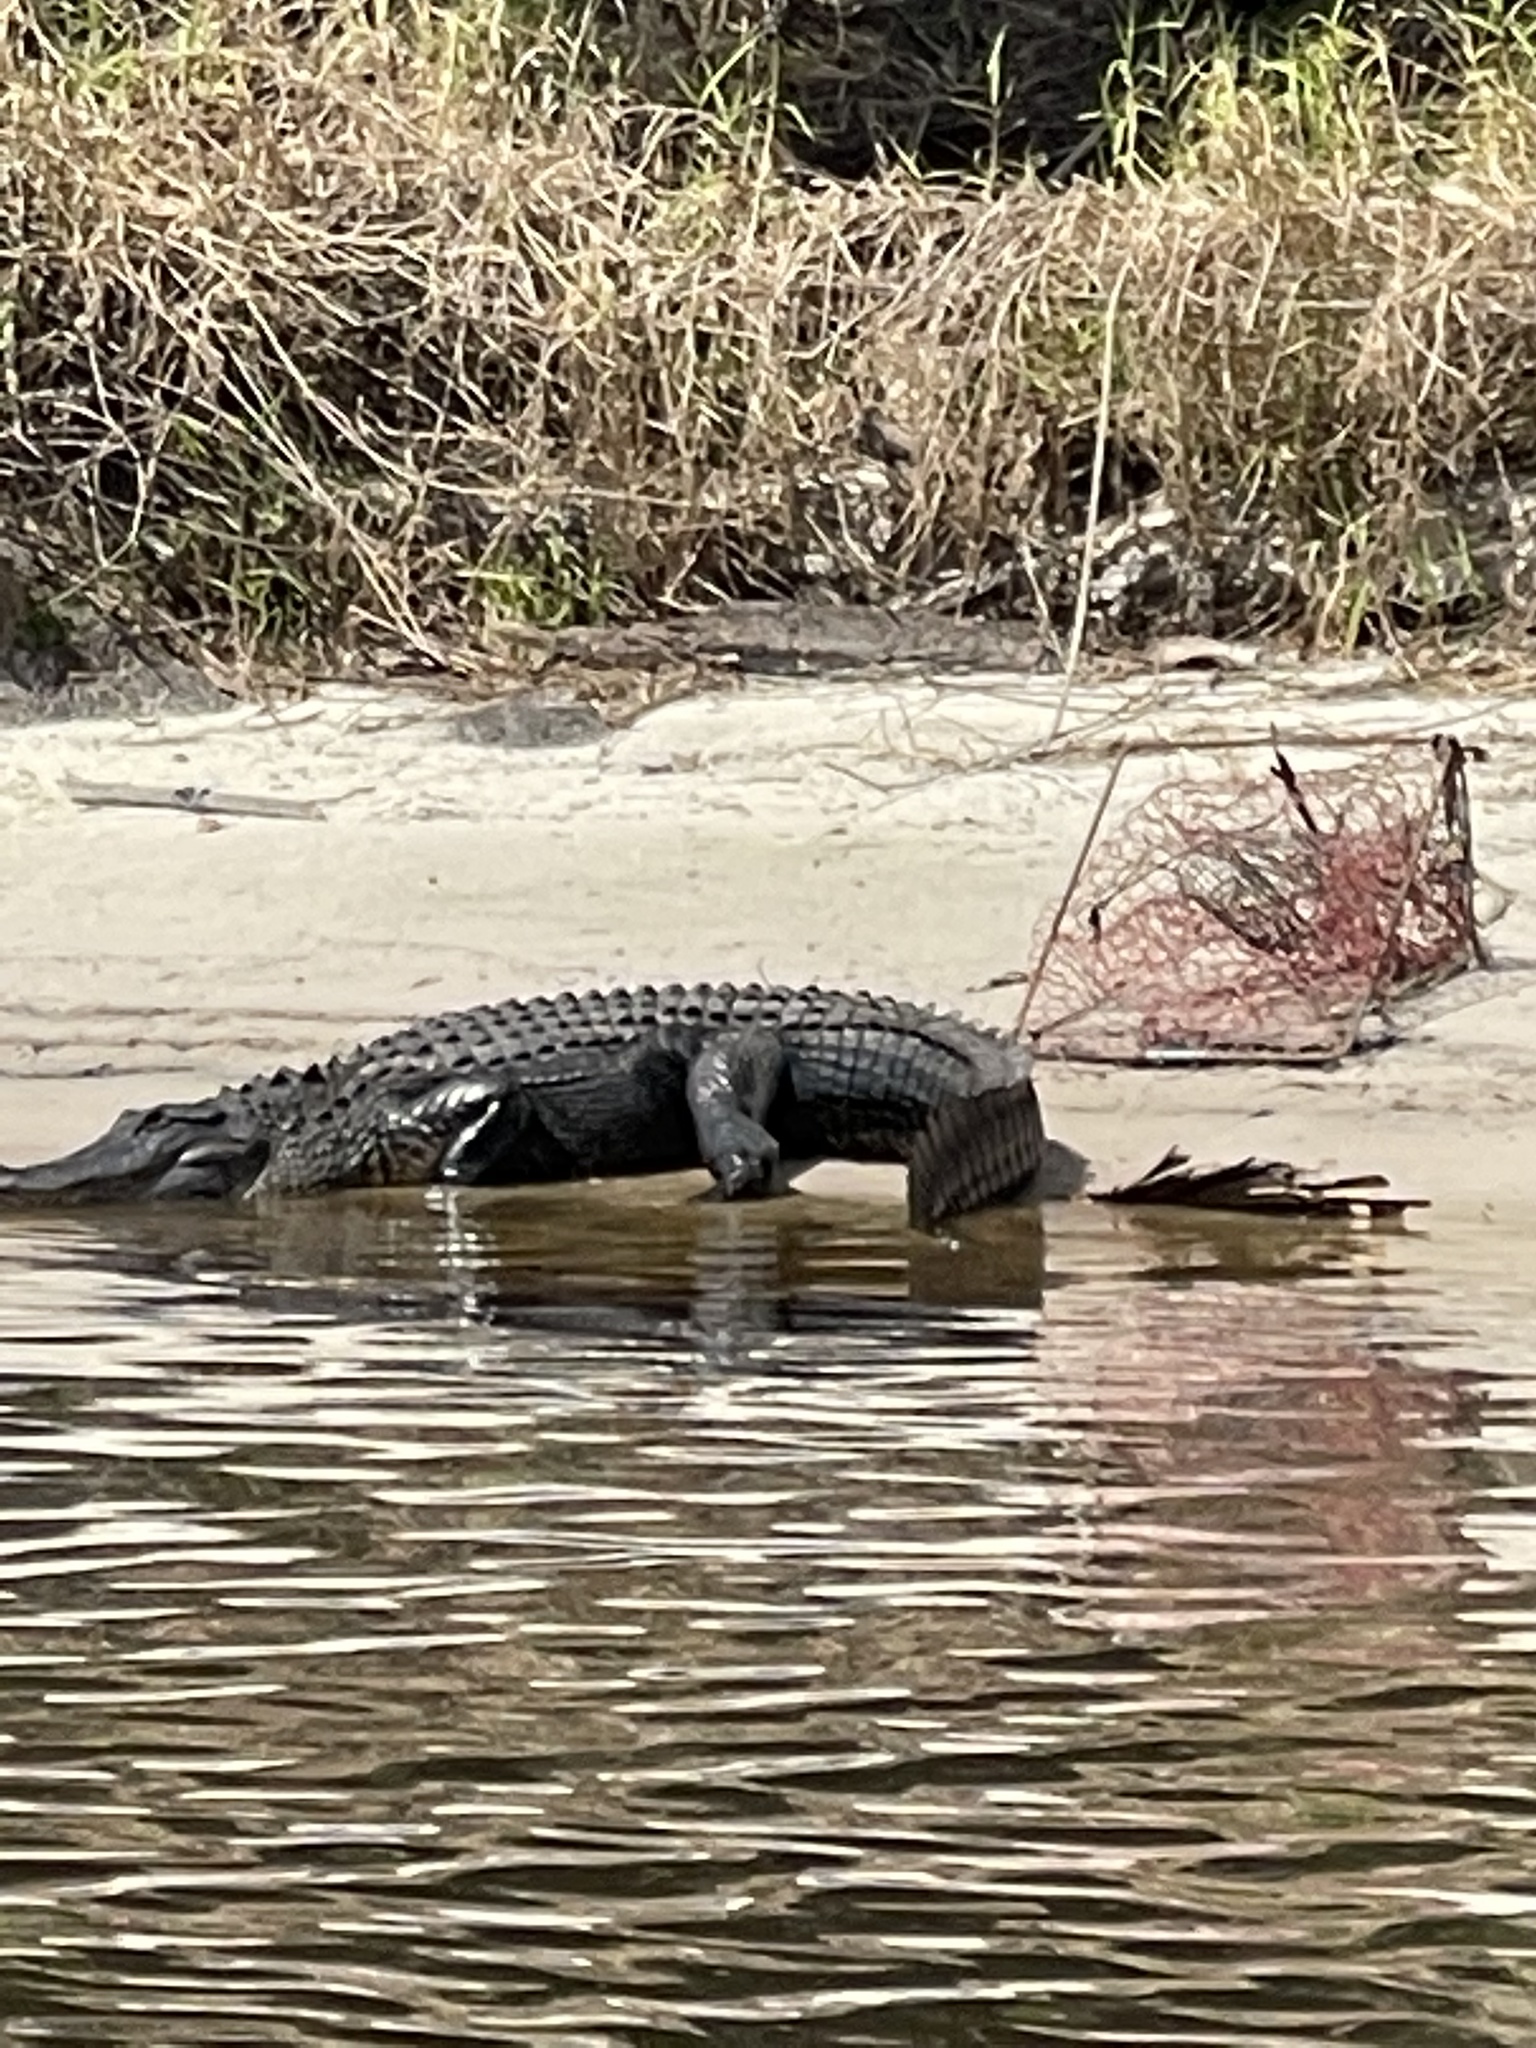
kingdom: Animalia
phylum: Chordata
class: Crocodylia
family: Alligatoridae
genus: Alligator
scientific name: Alligator mississippiensis
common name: American alligator
